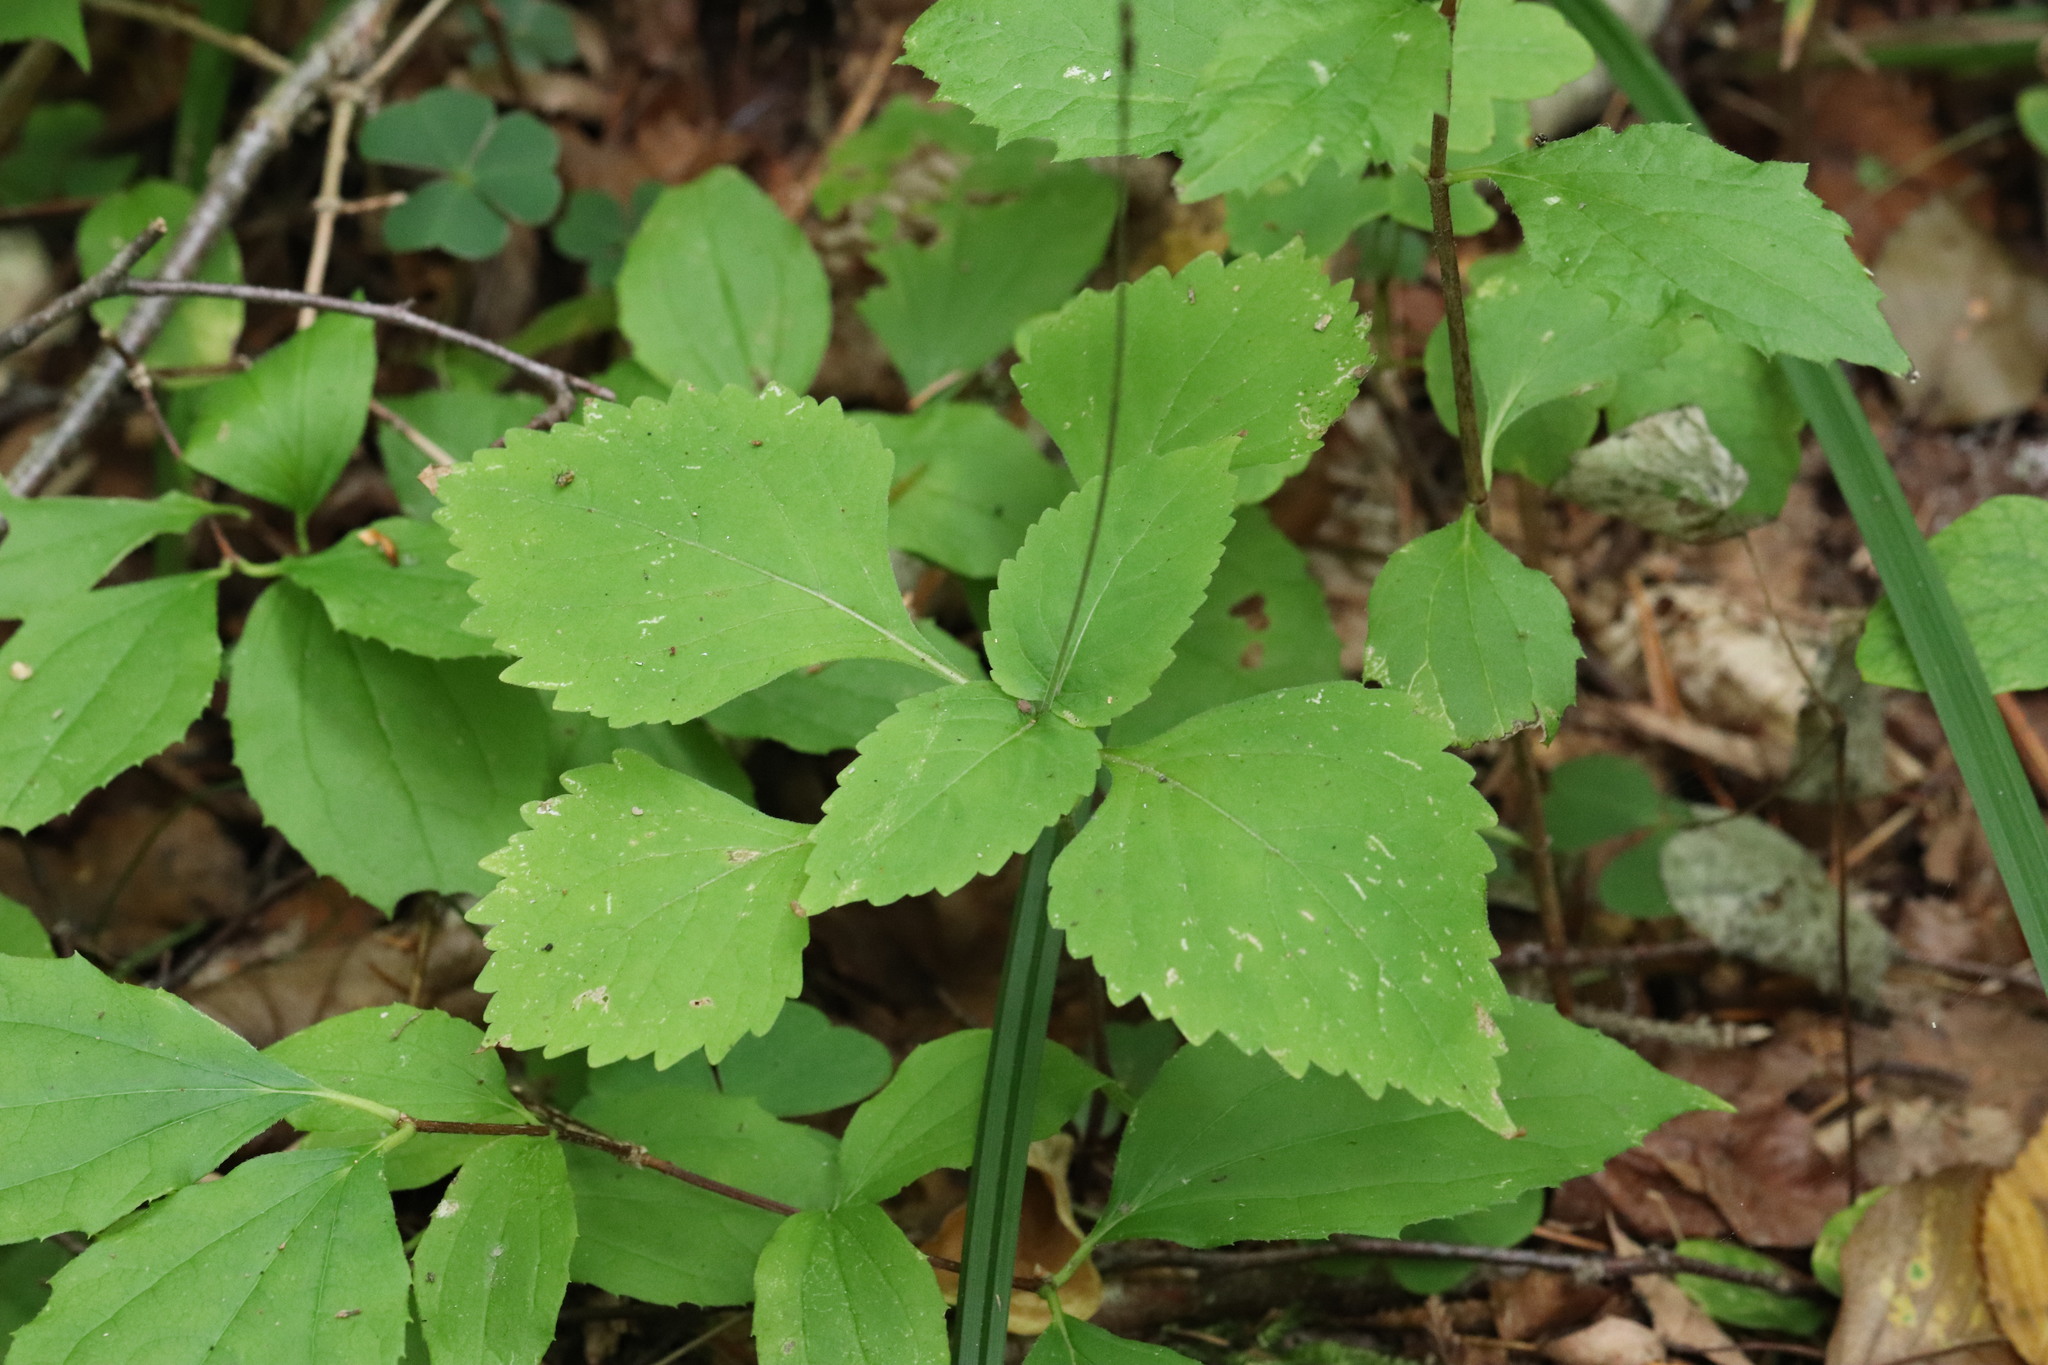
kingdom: Plantae
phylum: Tracheophyta
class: Magnoliopsida
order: Lamiales
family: Phrymaceae
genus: Phryma
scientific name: Phryma leptostachya
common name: American lopseed
